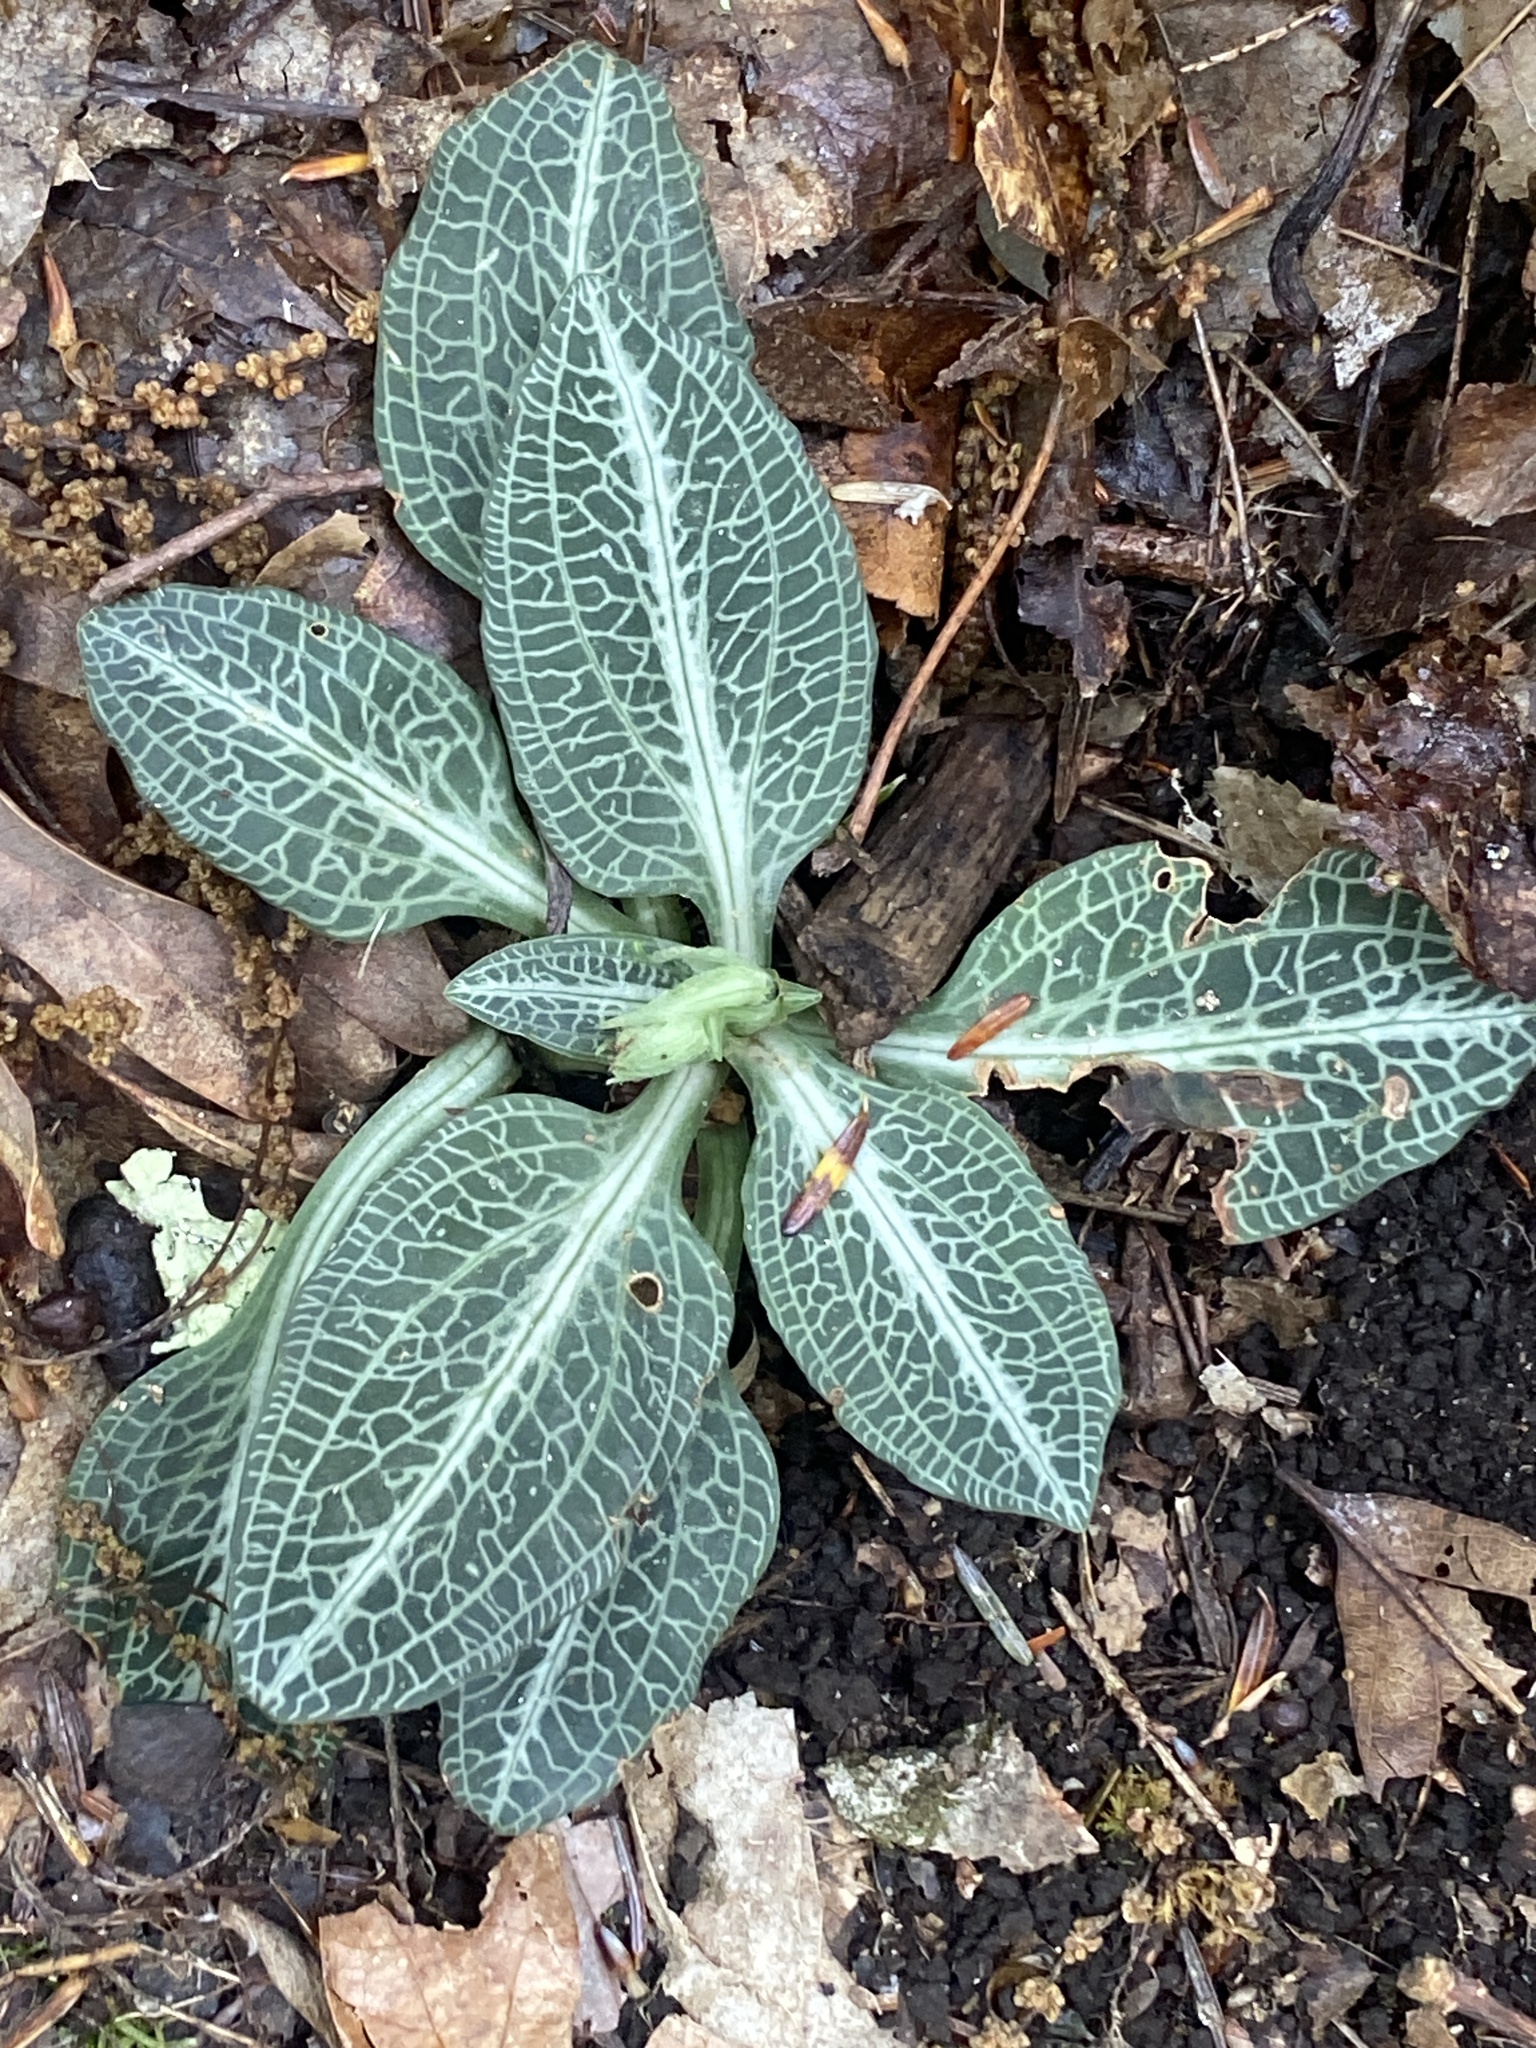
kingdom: Plantae
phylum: Tracheophyta
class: Liliopsida
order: Asparagales
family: Orchidaceae
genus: Goodyera
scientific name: Goodyera pubescens
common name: Downy rattlesnake-plantain
